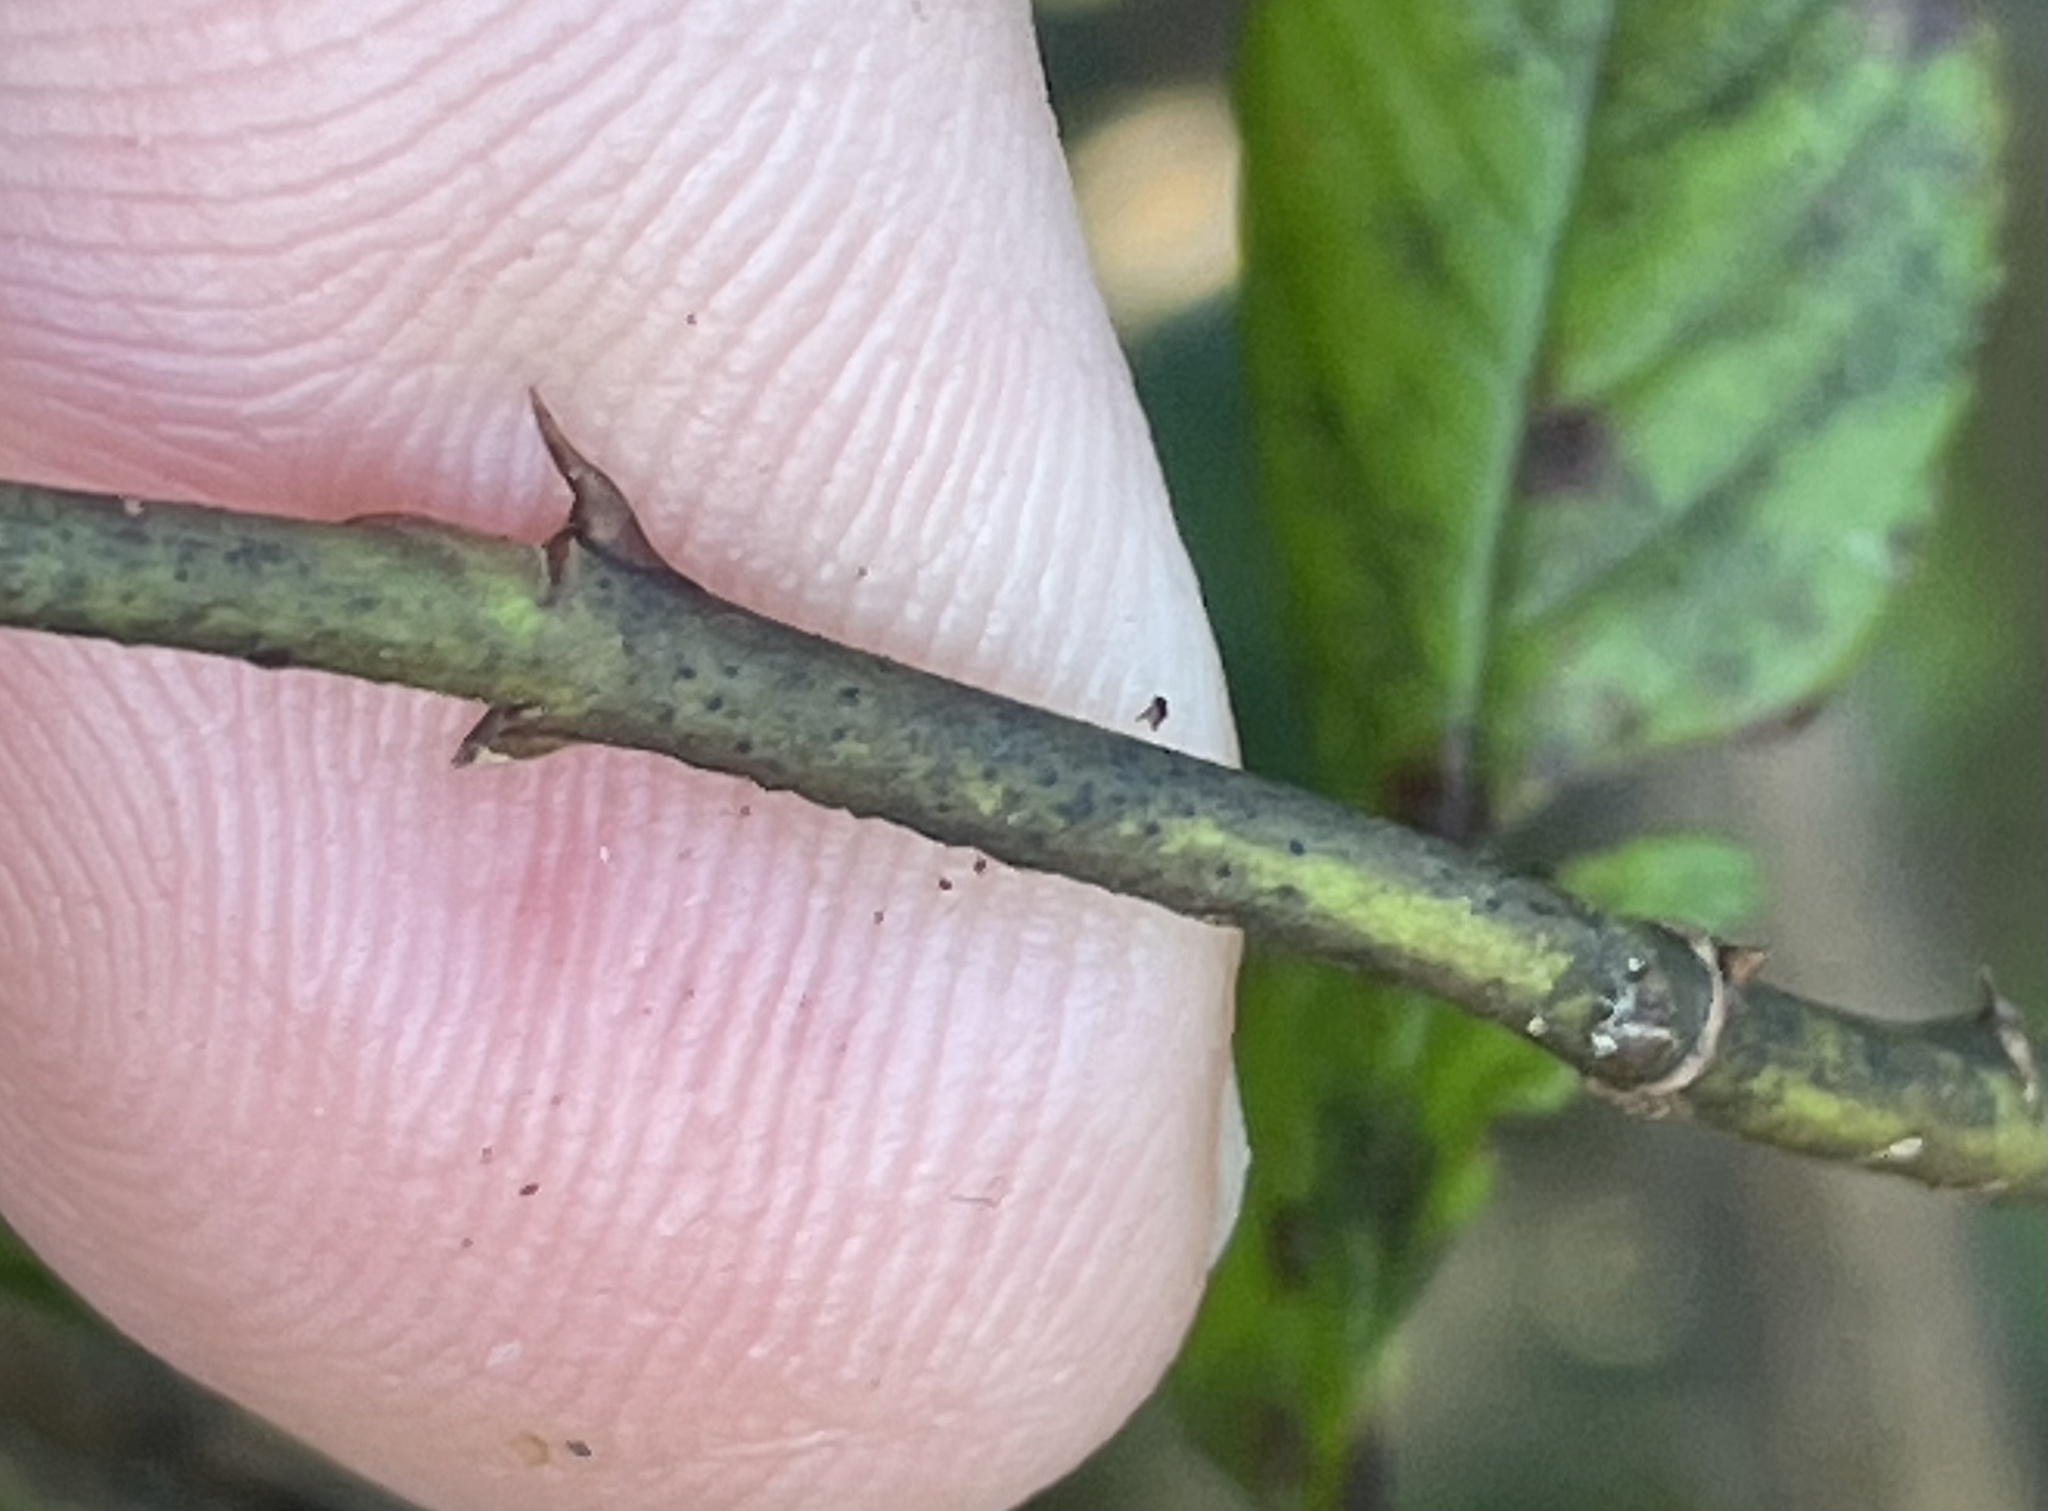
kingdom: Plantae
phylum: Tracheophyta
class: Magnoliopsida
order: Rosales
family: Rosaceae
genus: Rosa
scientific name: Rosa palustris
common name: Swamp rose
